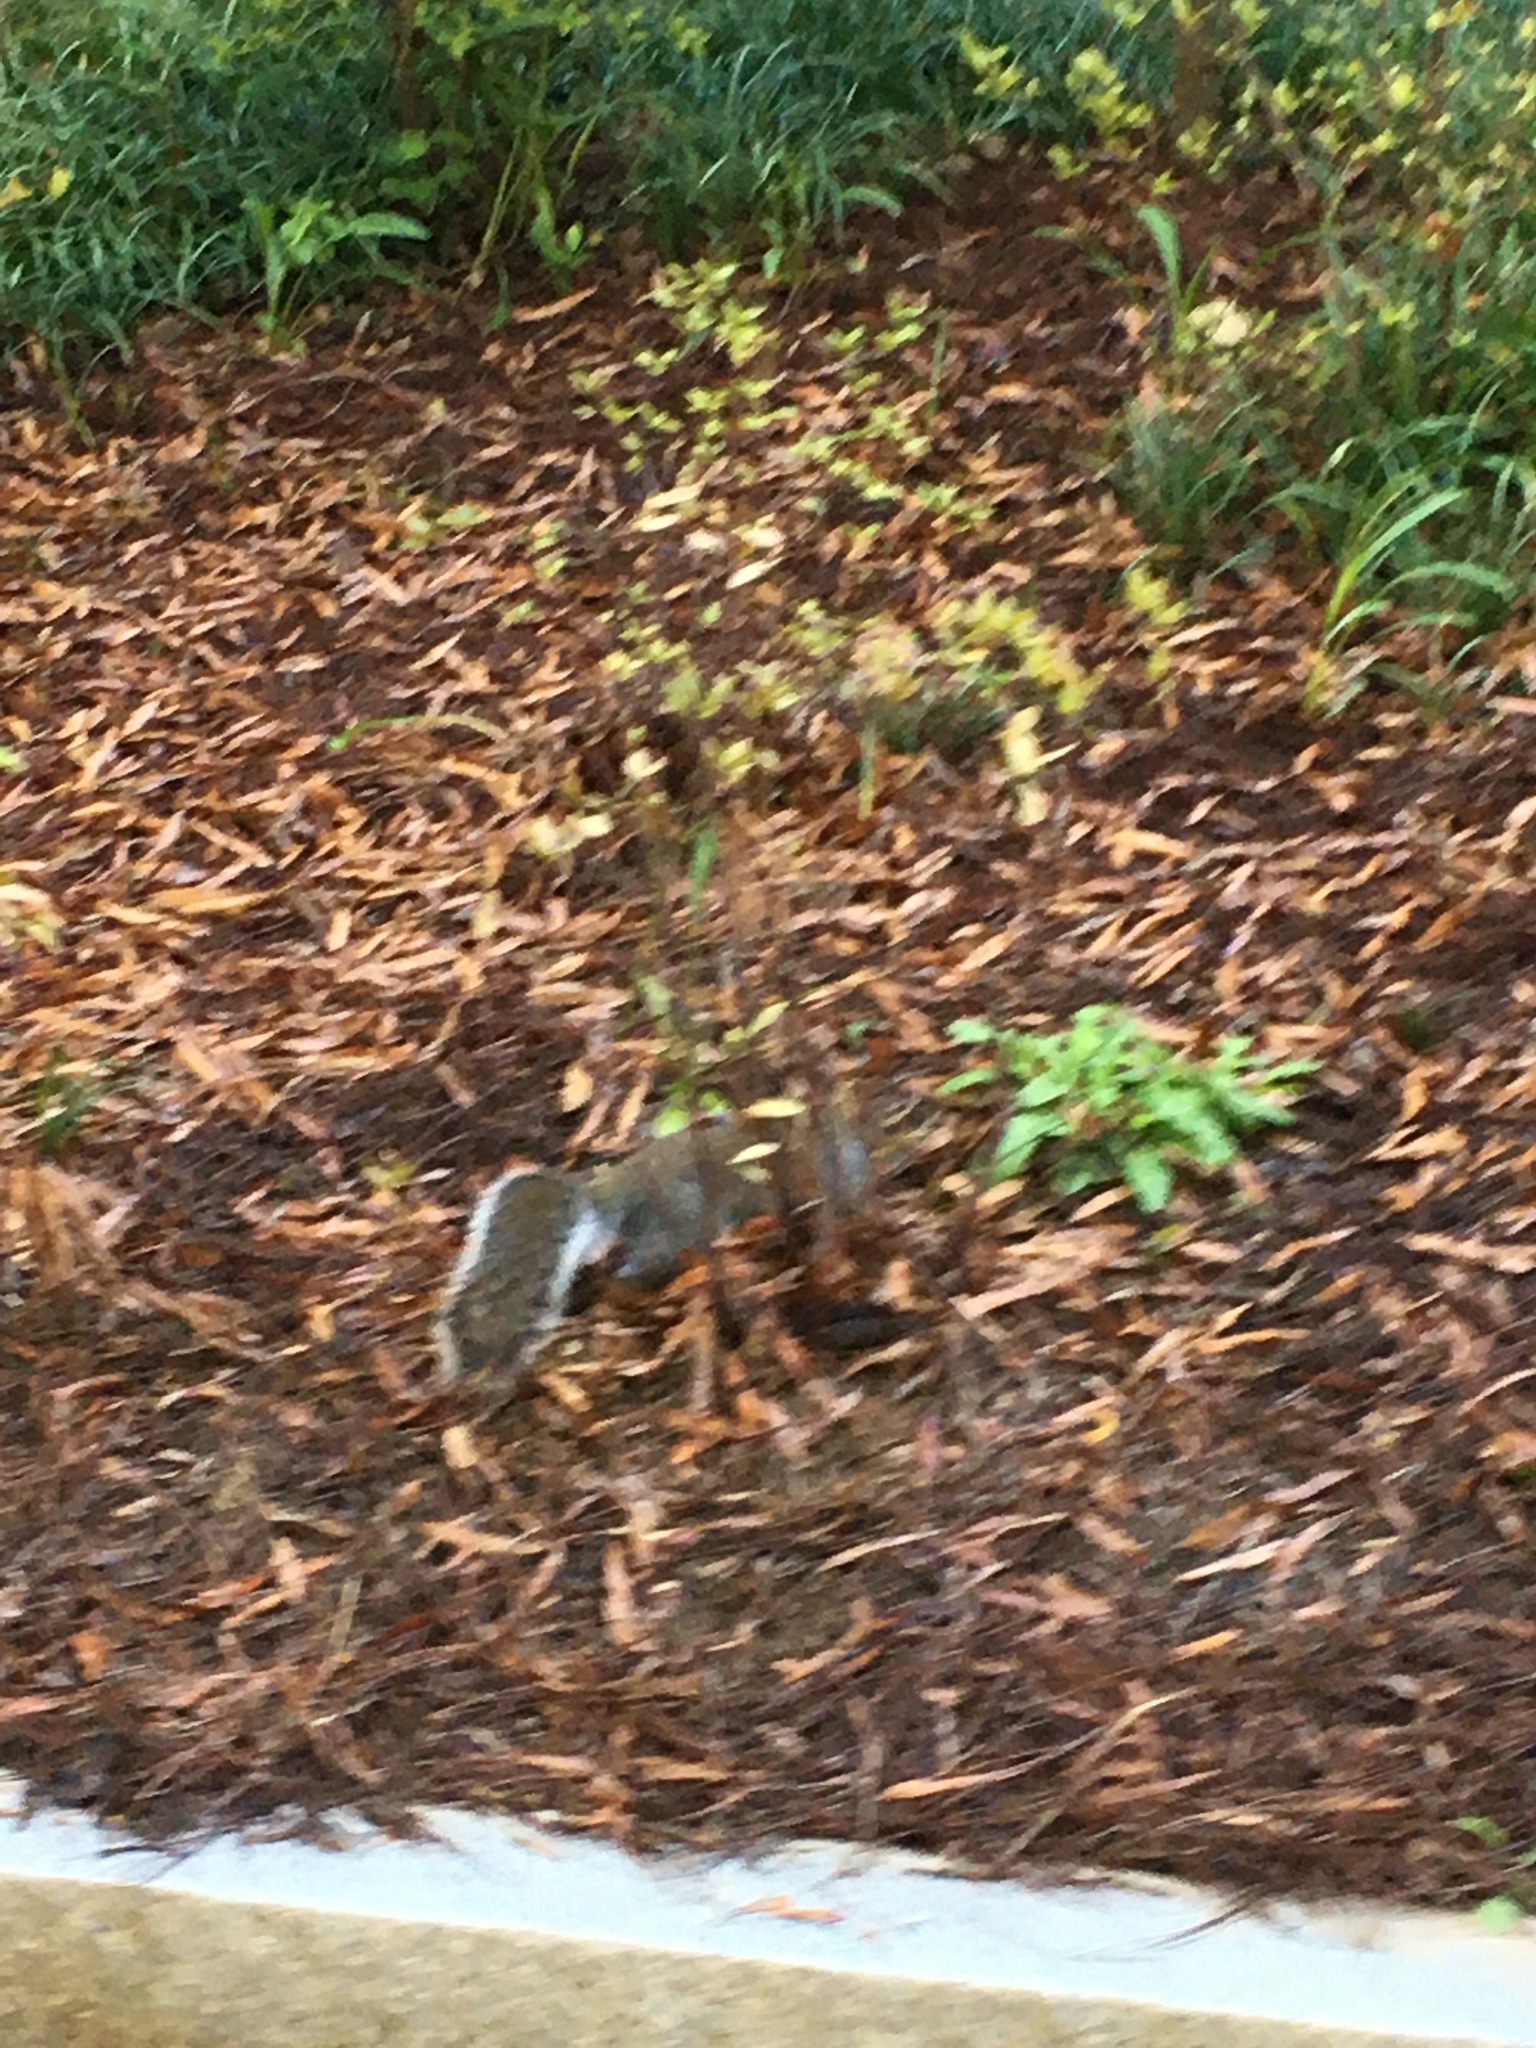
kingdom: Animalia
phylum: Chordata
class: Mammalia
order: Rodentia
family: Sciuridae
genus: Sciurus
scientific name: Sciurus carolinensis
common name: Eastern gray squirrel
